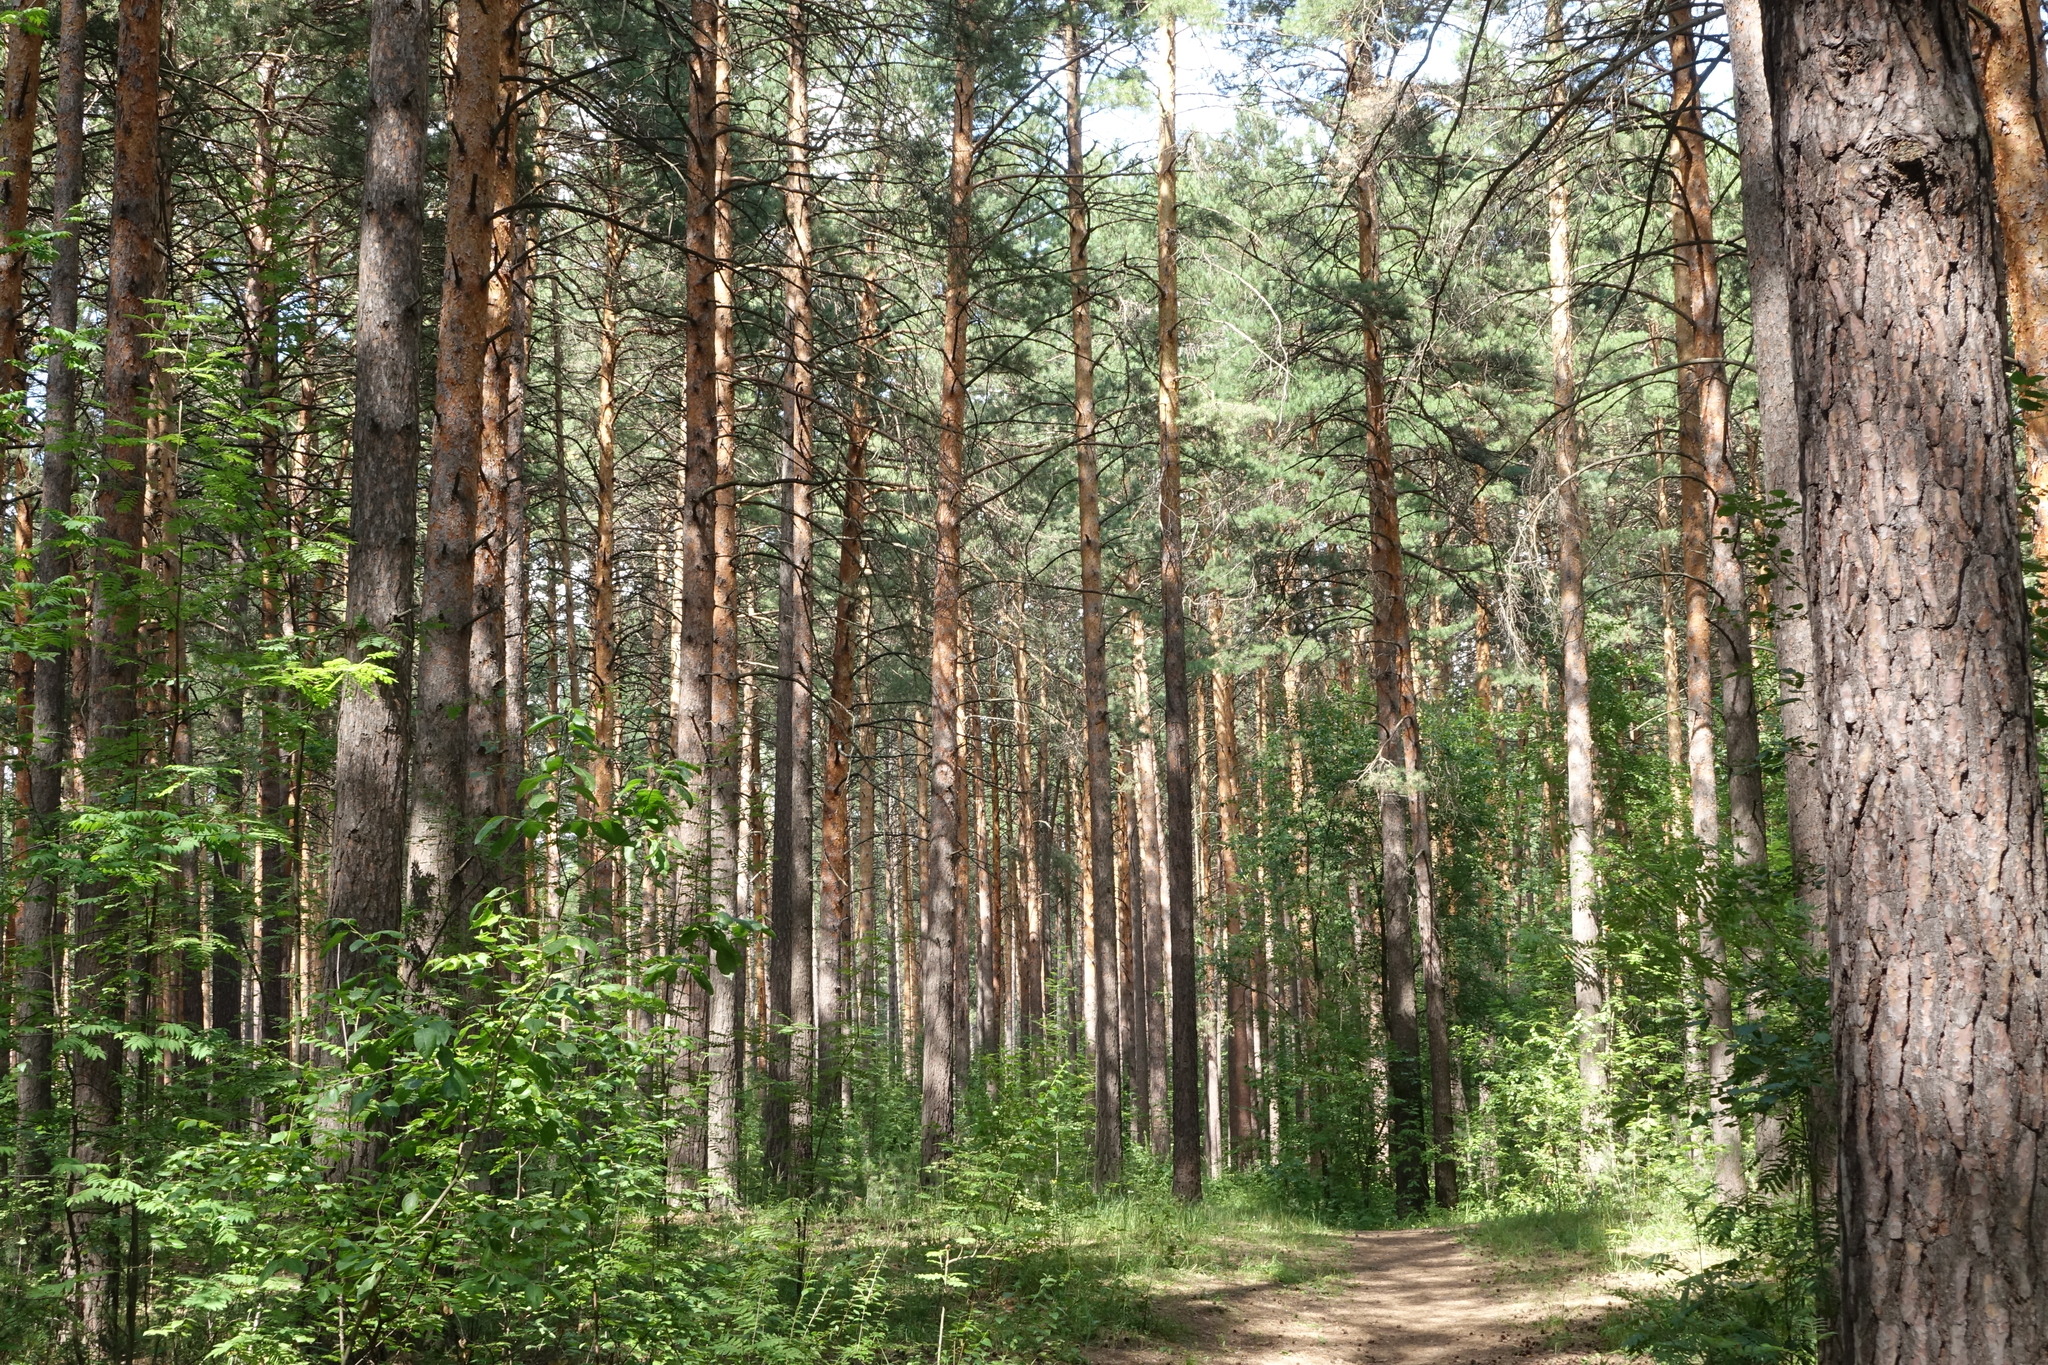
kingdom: Plantae
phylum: Tracheophyta
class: Pinopsida
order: Pinales
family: Pinaceae
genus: Pinus
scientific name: Pinus sylvestris
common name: Scots pine
